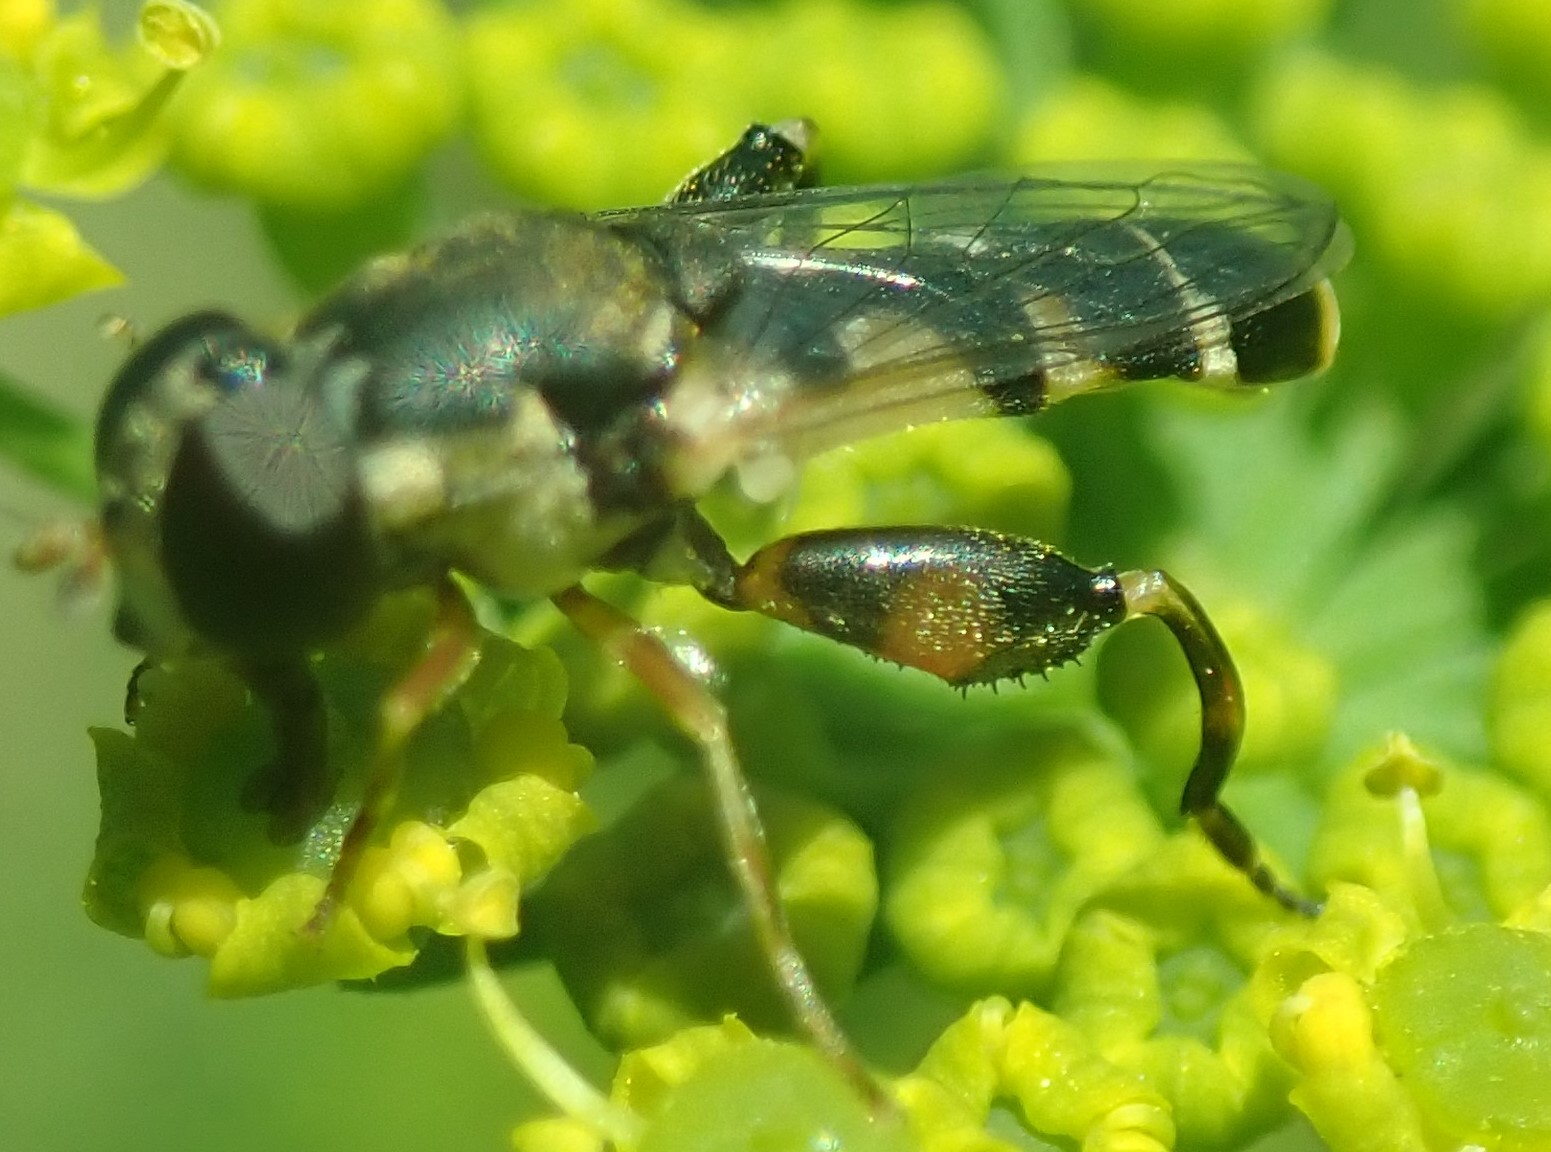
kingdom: Animalia
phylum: Arthropoda
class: Insecta
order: Diptera
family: Syrphidae
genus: Syritta
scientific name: Syritta pipiens
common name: Hover fly
